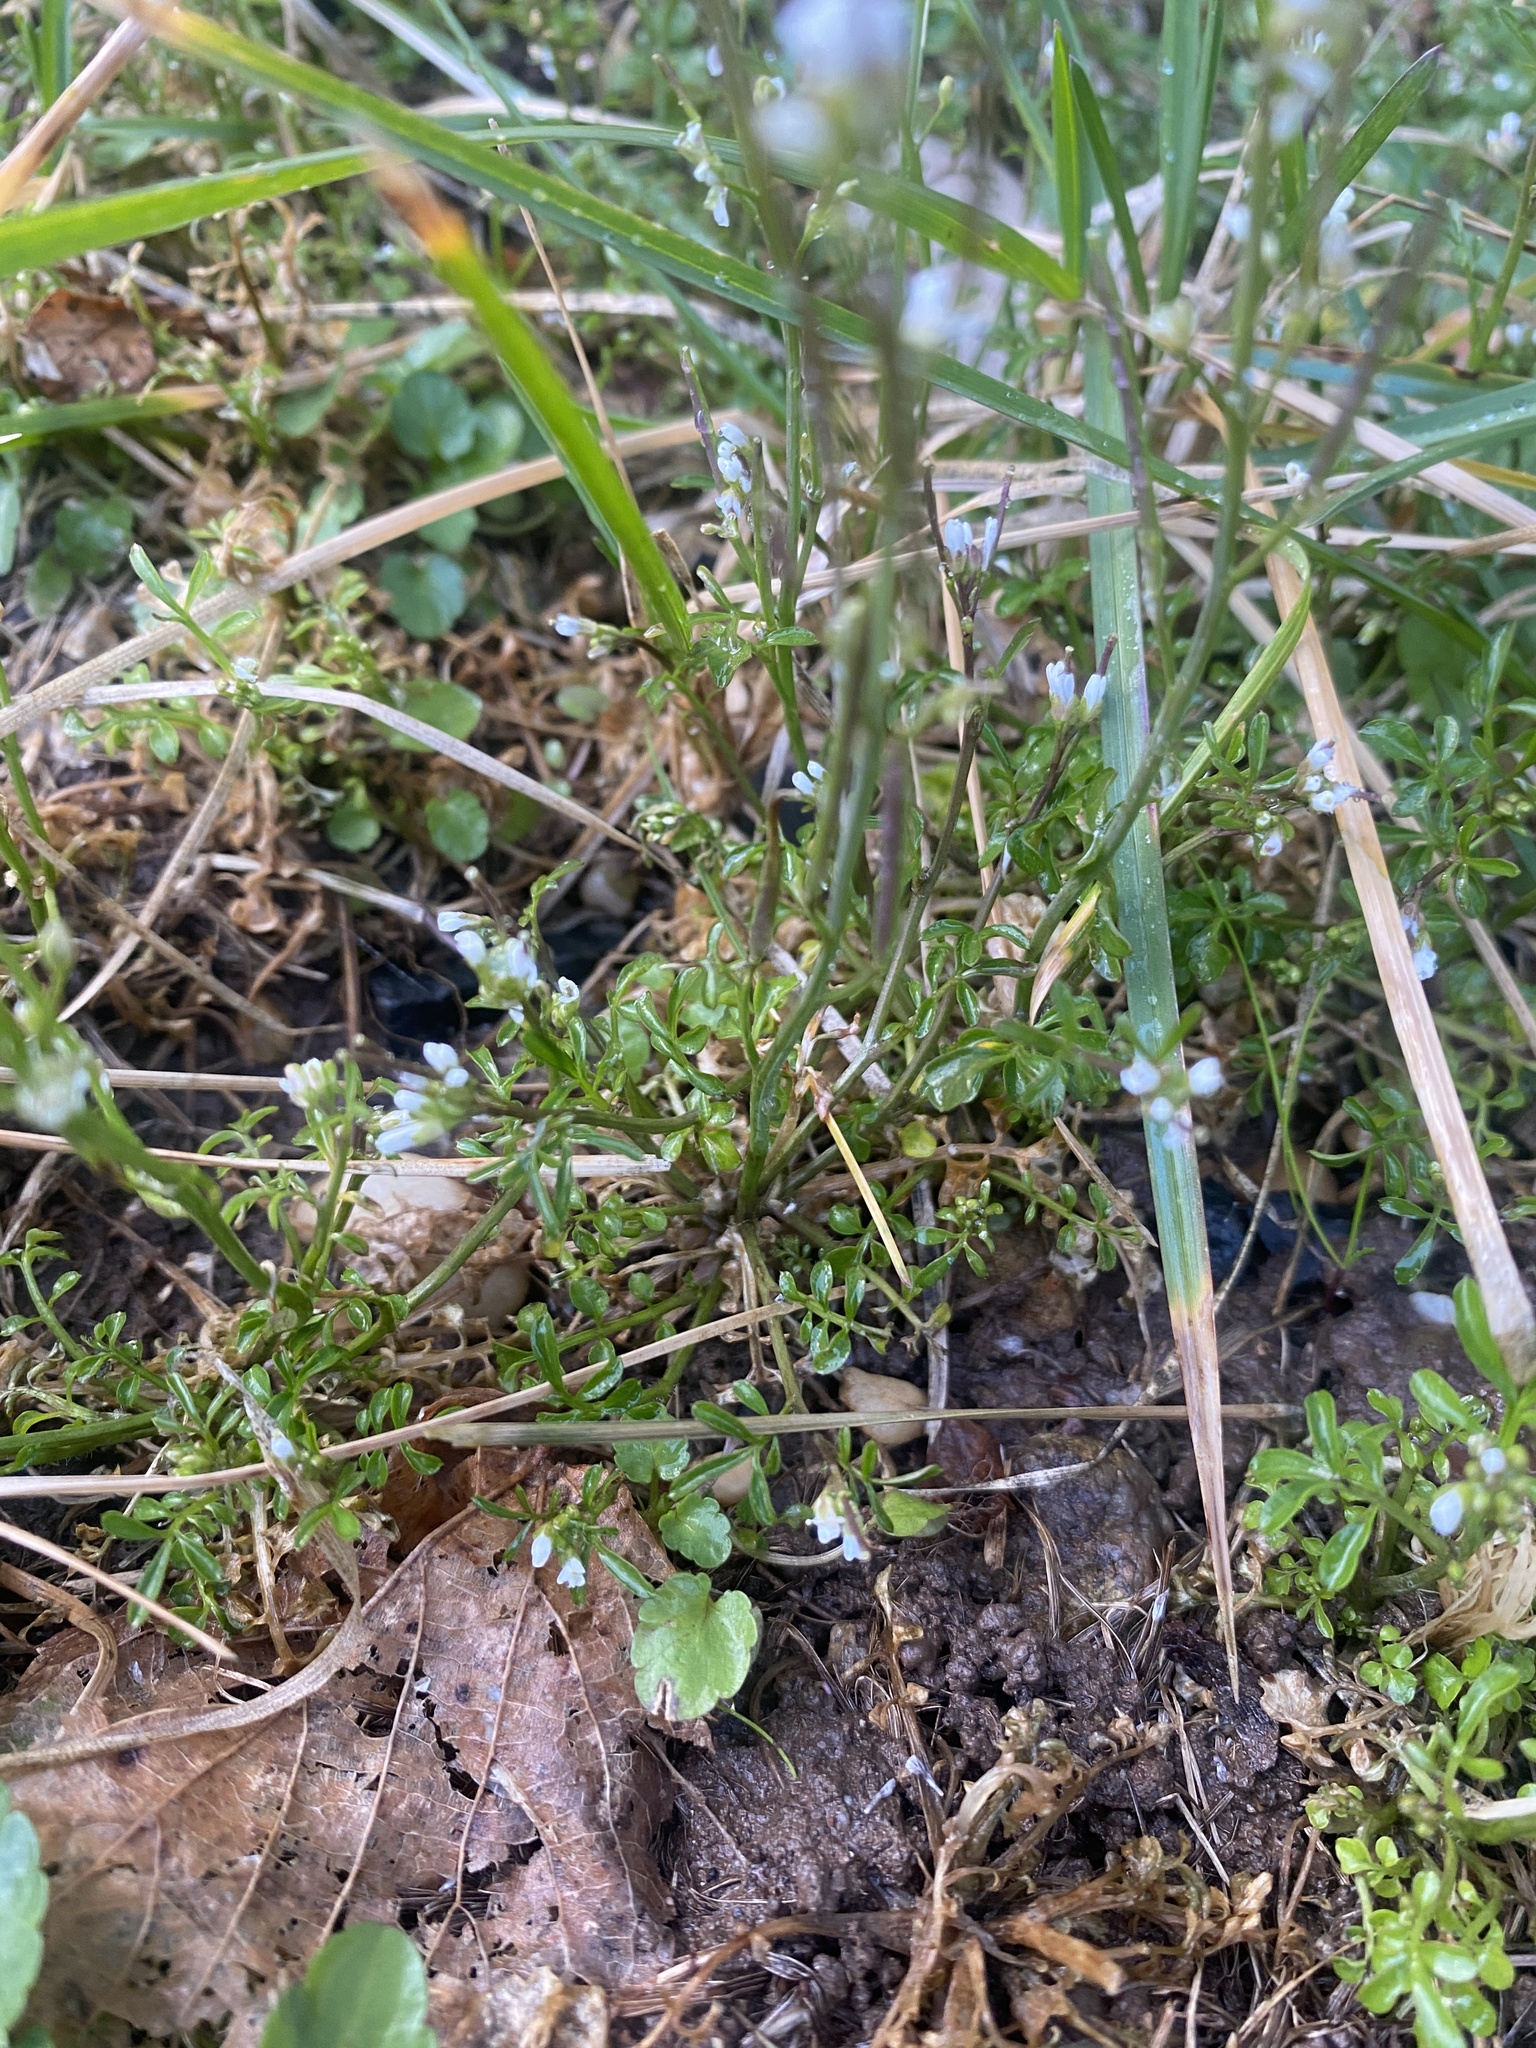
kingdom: Plantae
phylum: Tracheophyta
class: Magnoliopsida
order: Brassicales
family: Brassicaceae
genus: Cardamine
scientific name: Cardamine hirsuta
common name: Hairy bittercress
